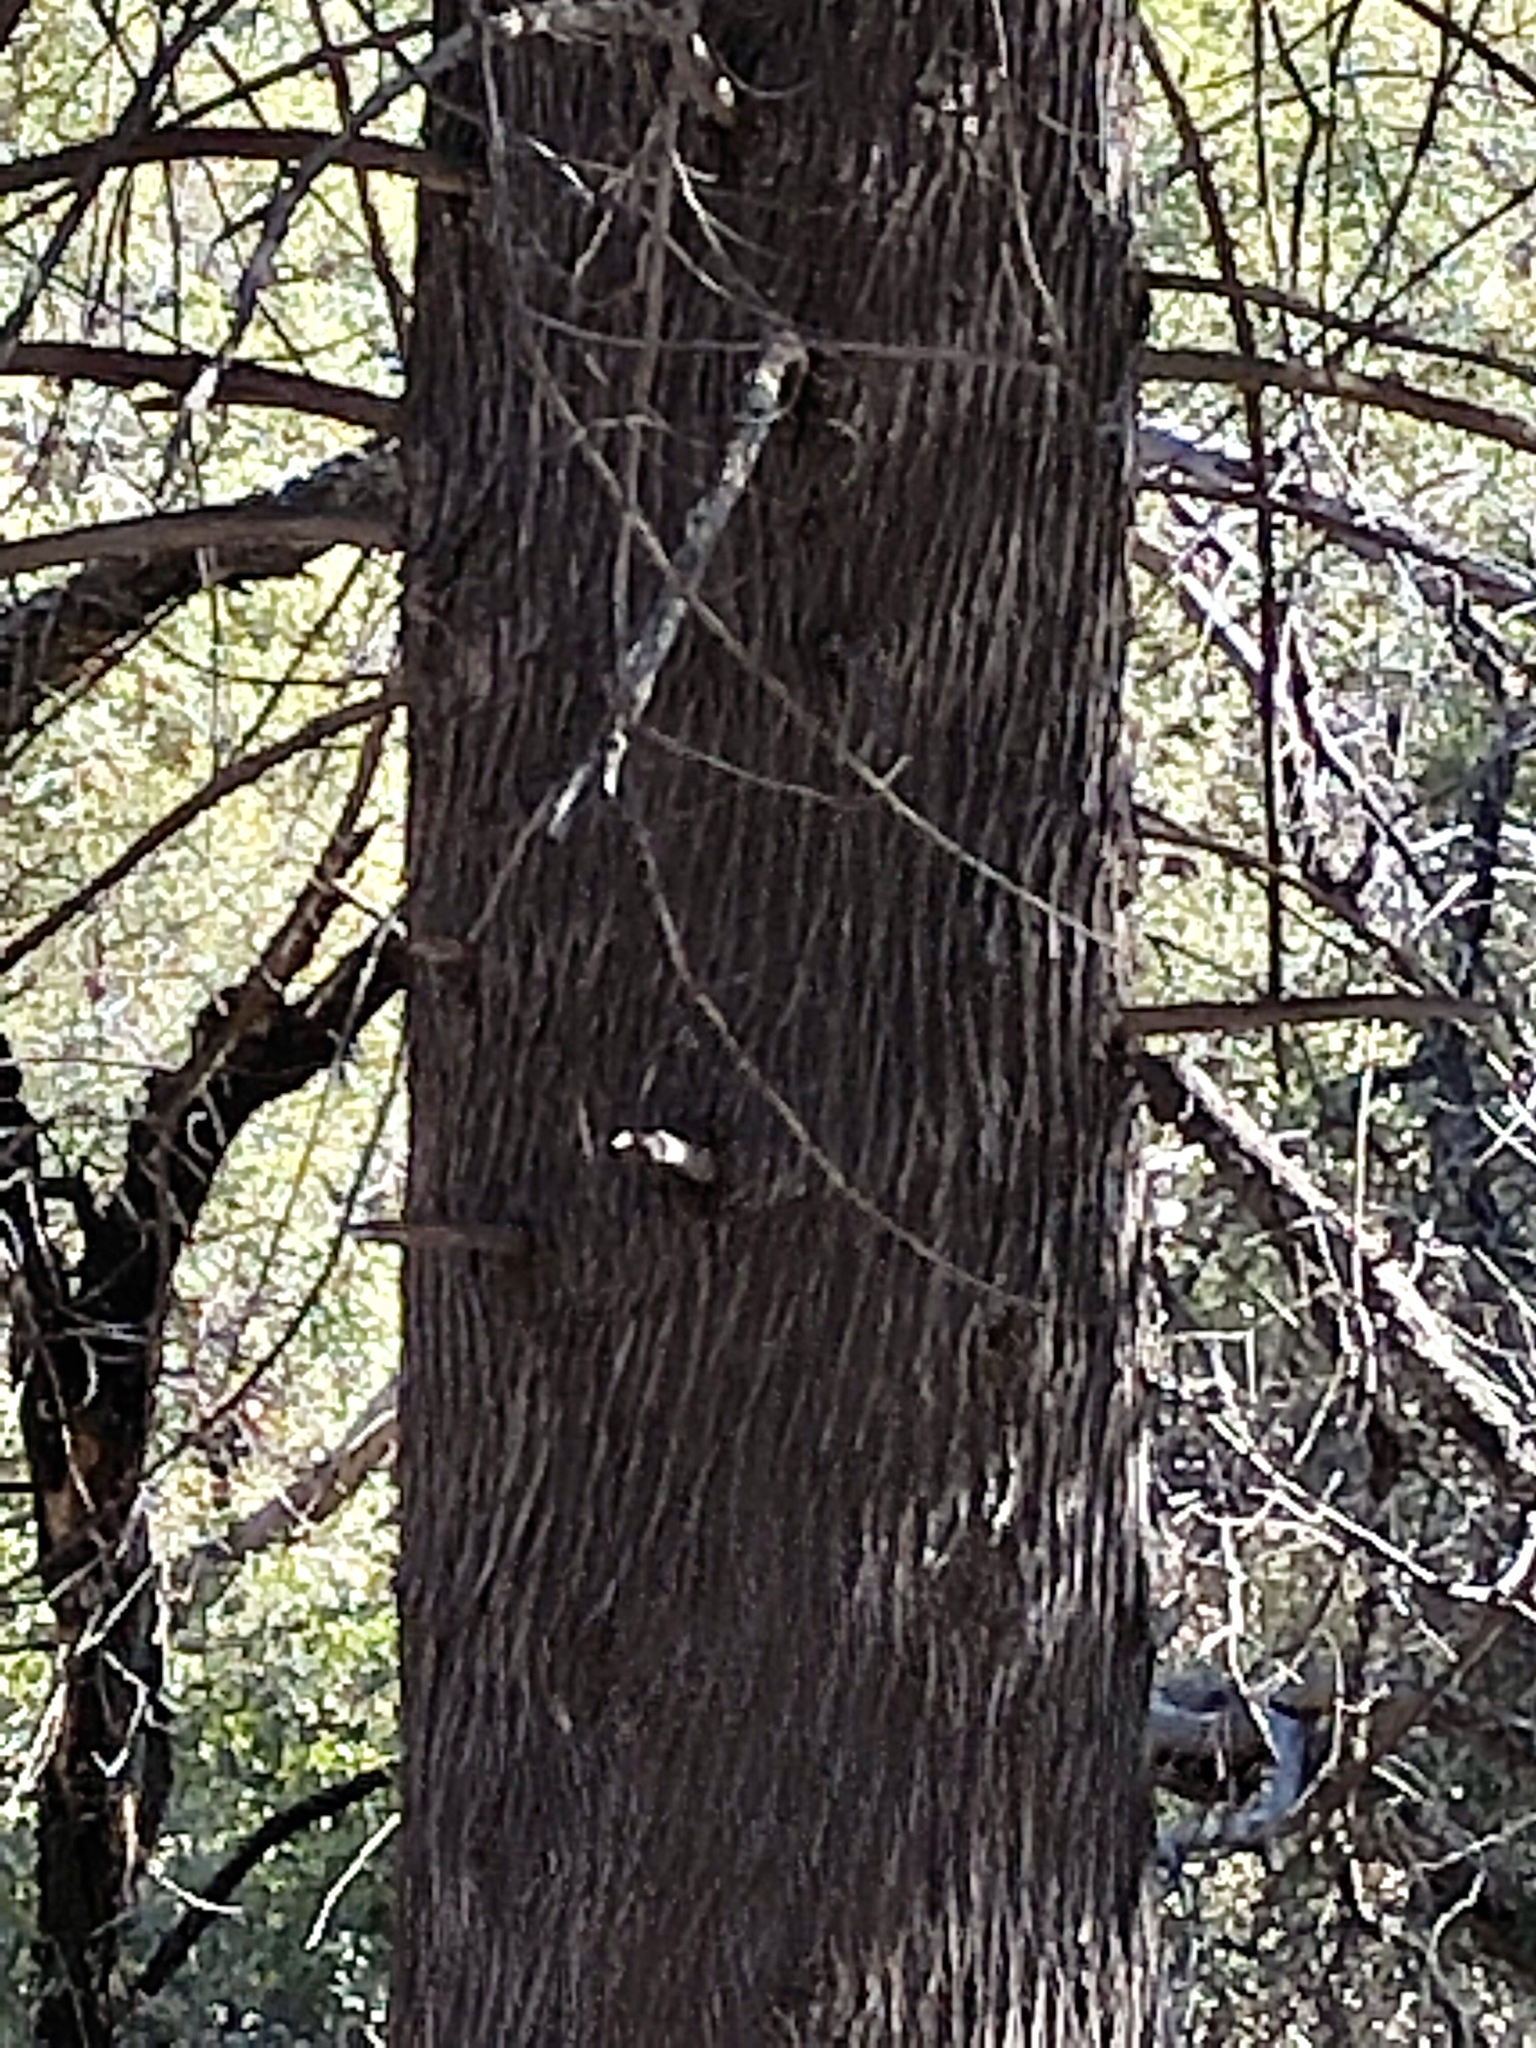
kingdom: Plantae
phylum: Tracheophyta
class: Pinopsida
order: Pinales
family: Cupressaceae
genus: Cupressus
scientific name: Cupressus arizonica
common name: Arizona cypress
